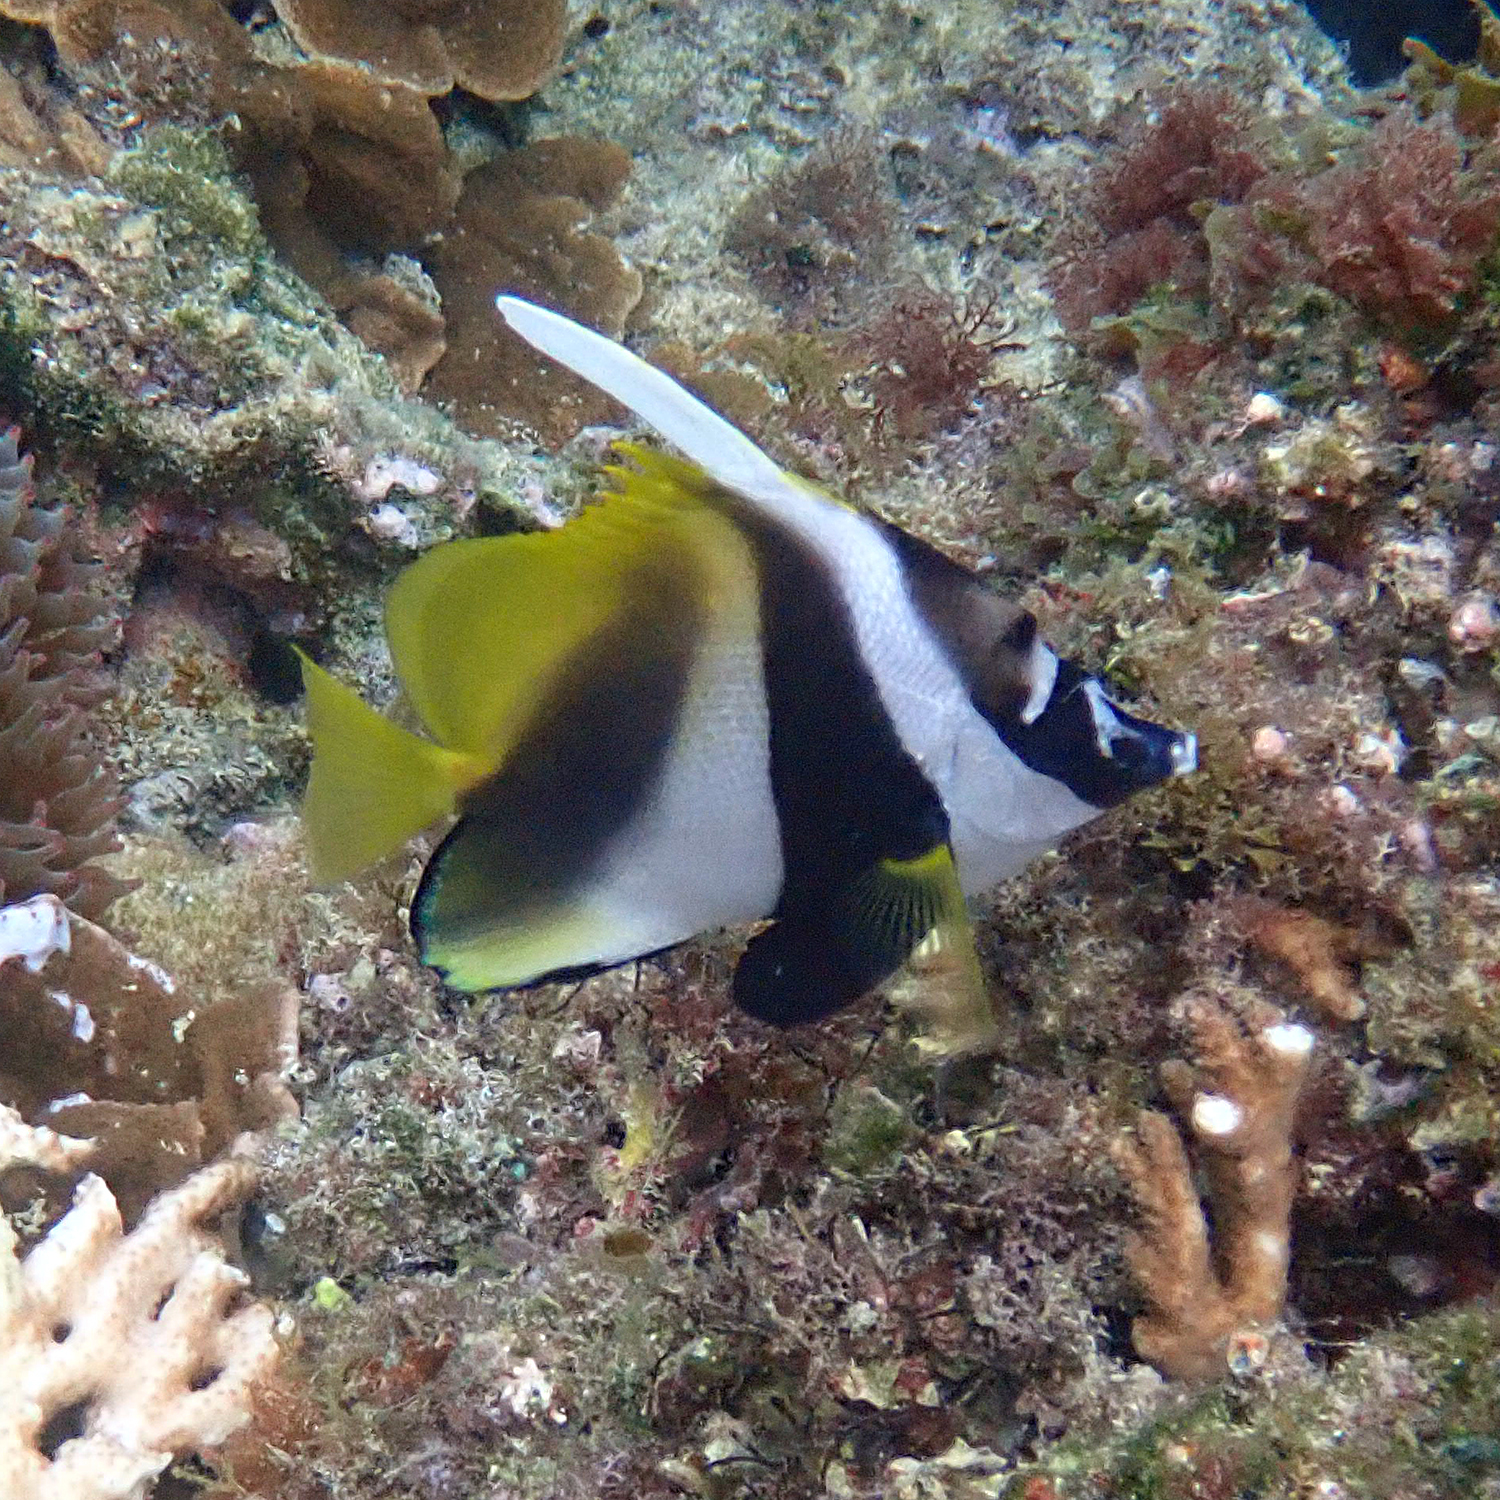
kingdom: Animalia
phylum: Chordata
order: Perciformes
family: Chaetodontidae
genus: Heniochus
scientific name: Heniochus monoceros
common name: Masked bannerfish
